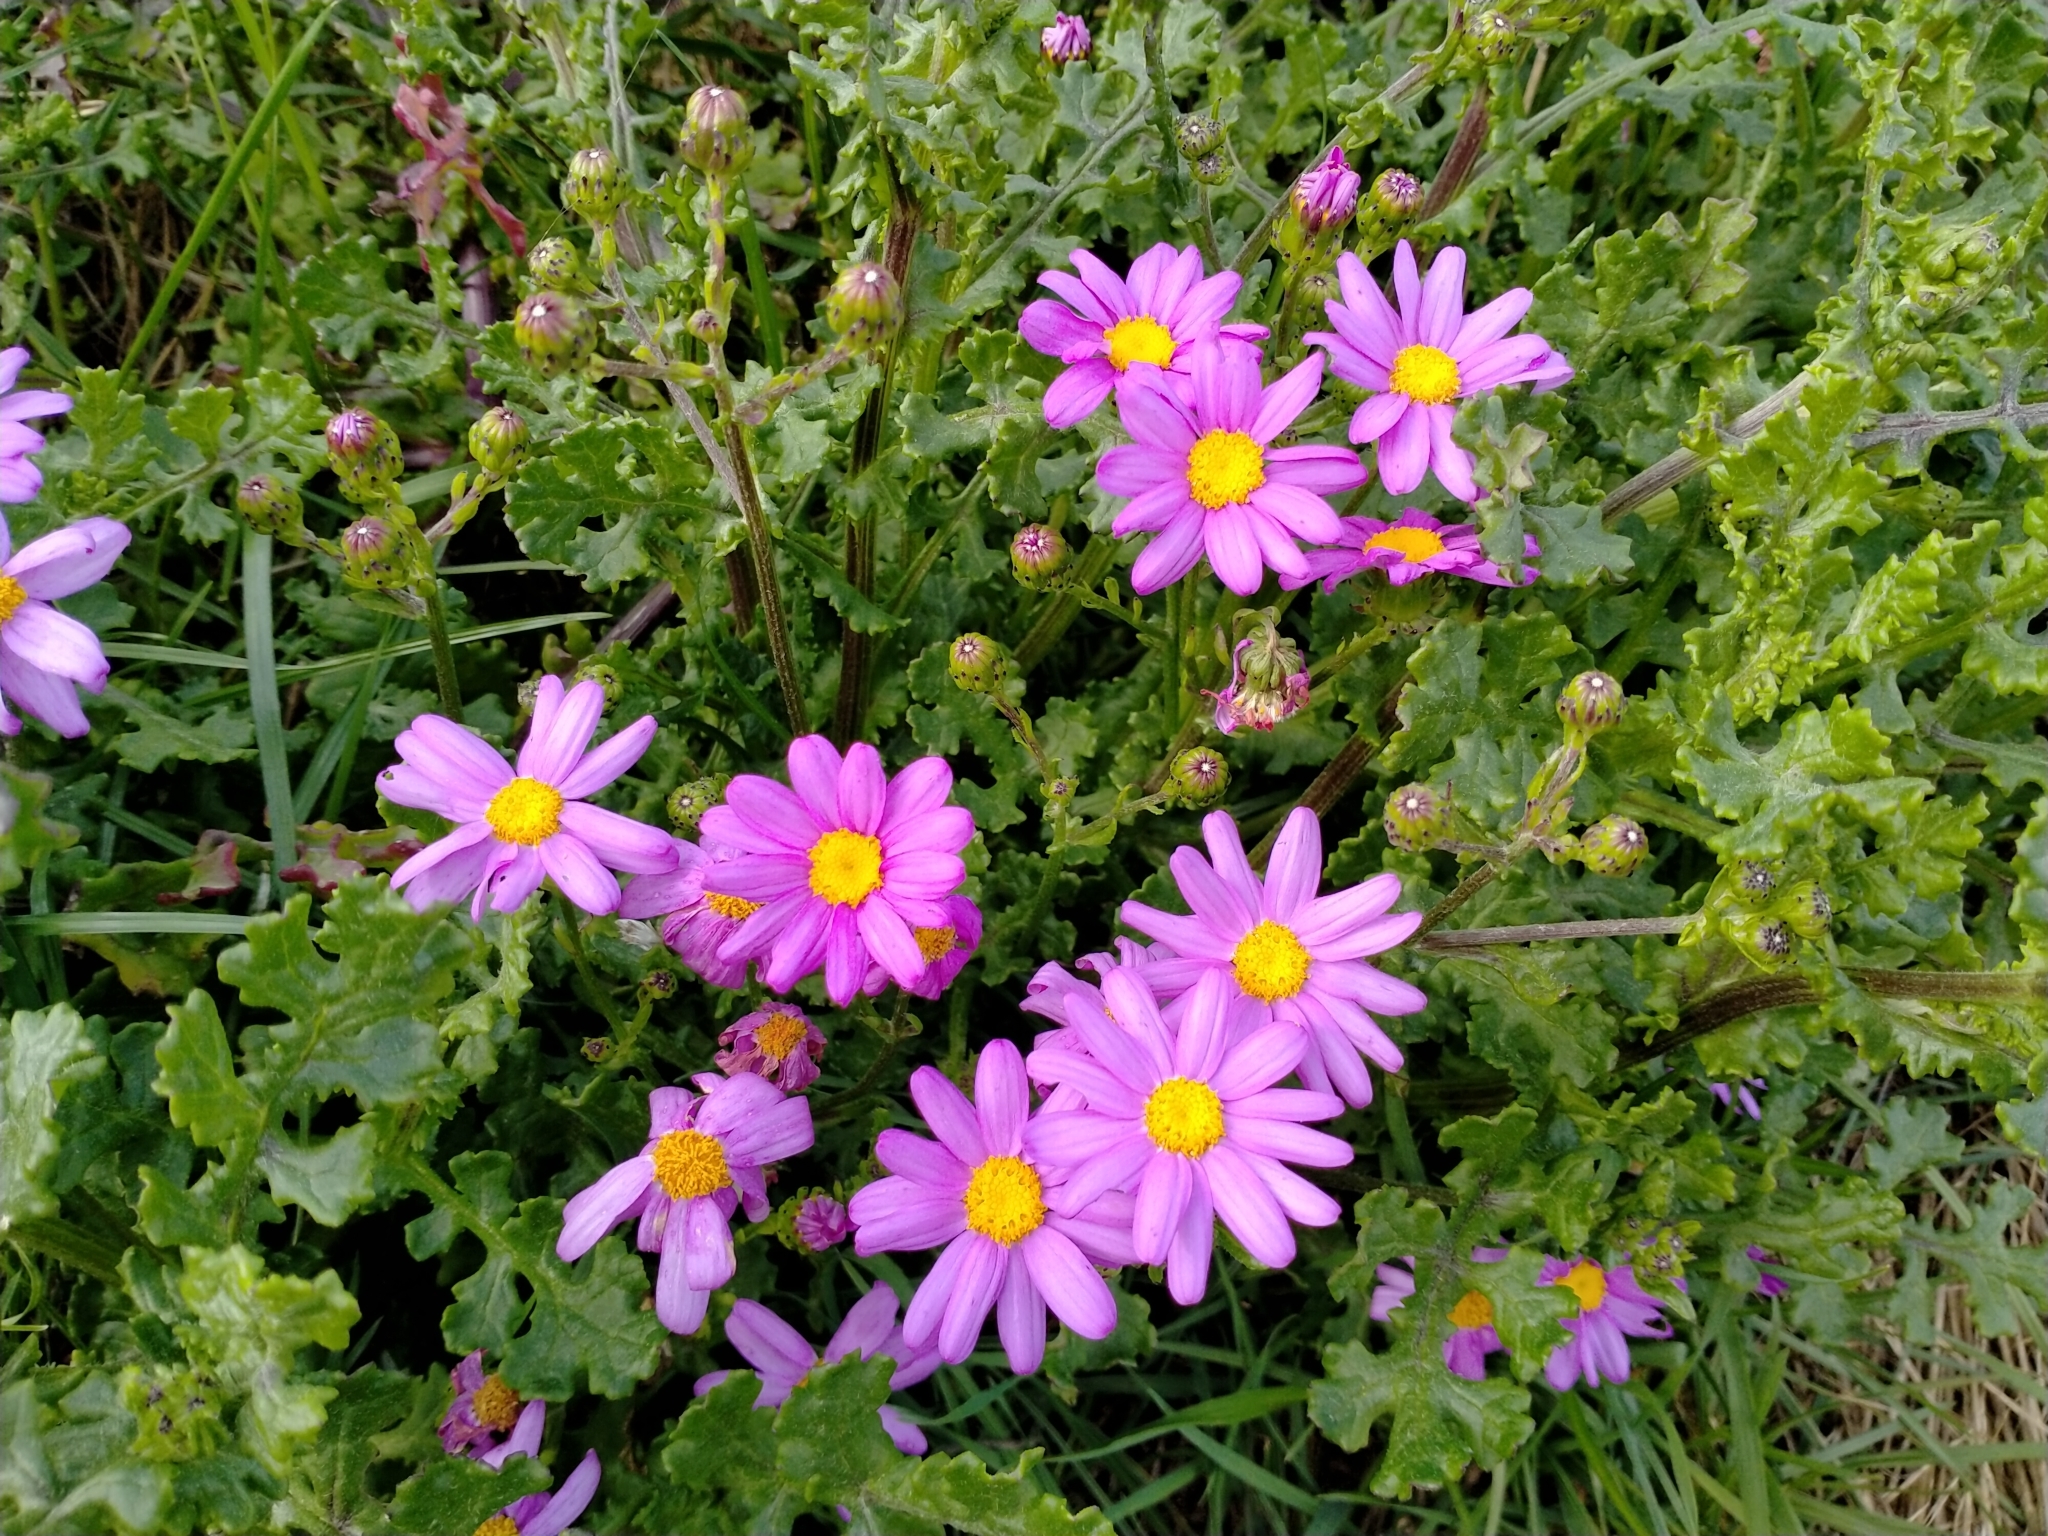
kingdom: Plantae
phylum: Tracheophyta
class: Magnoliopsida
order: Asterales
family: Asteraceae
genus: Senecio
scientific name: Senecio elegans
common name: Purple groundsel
